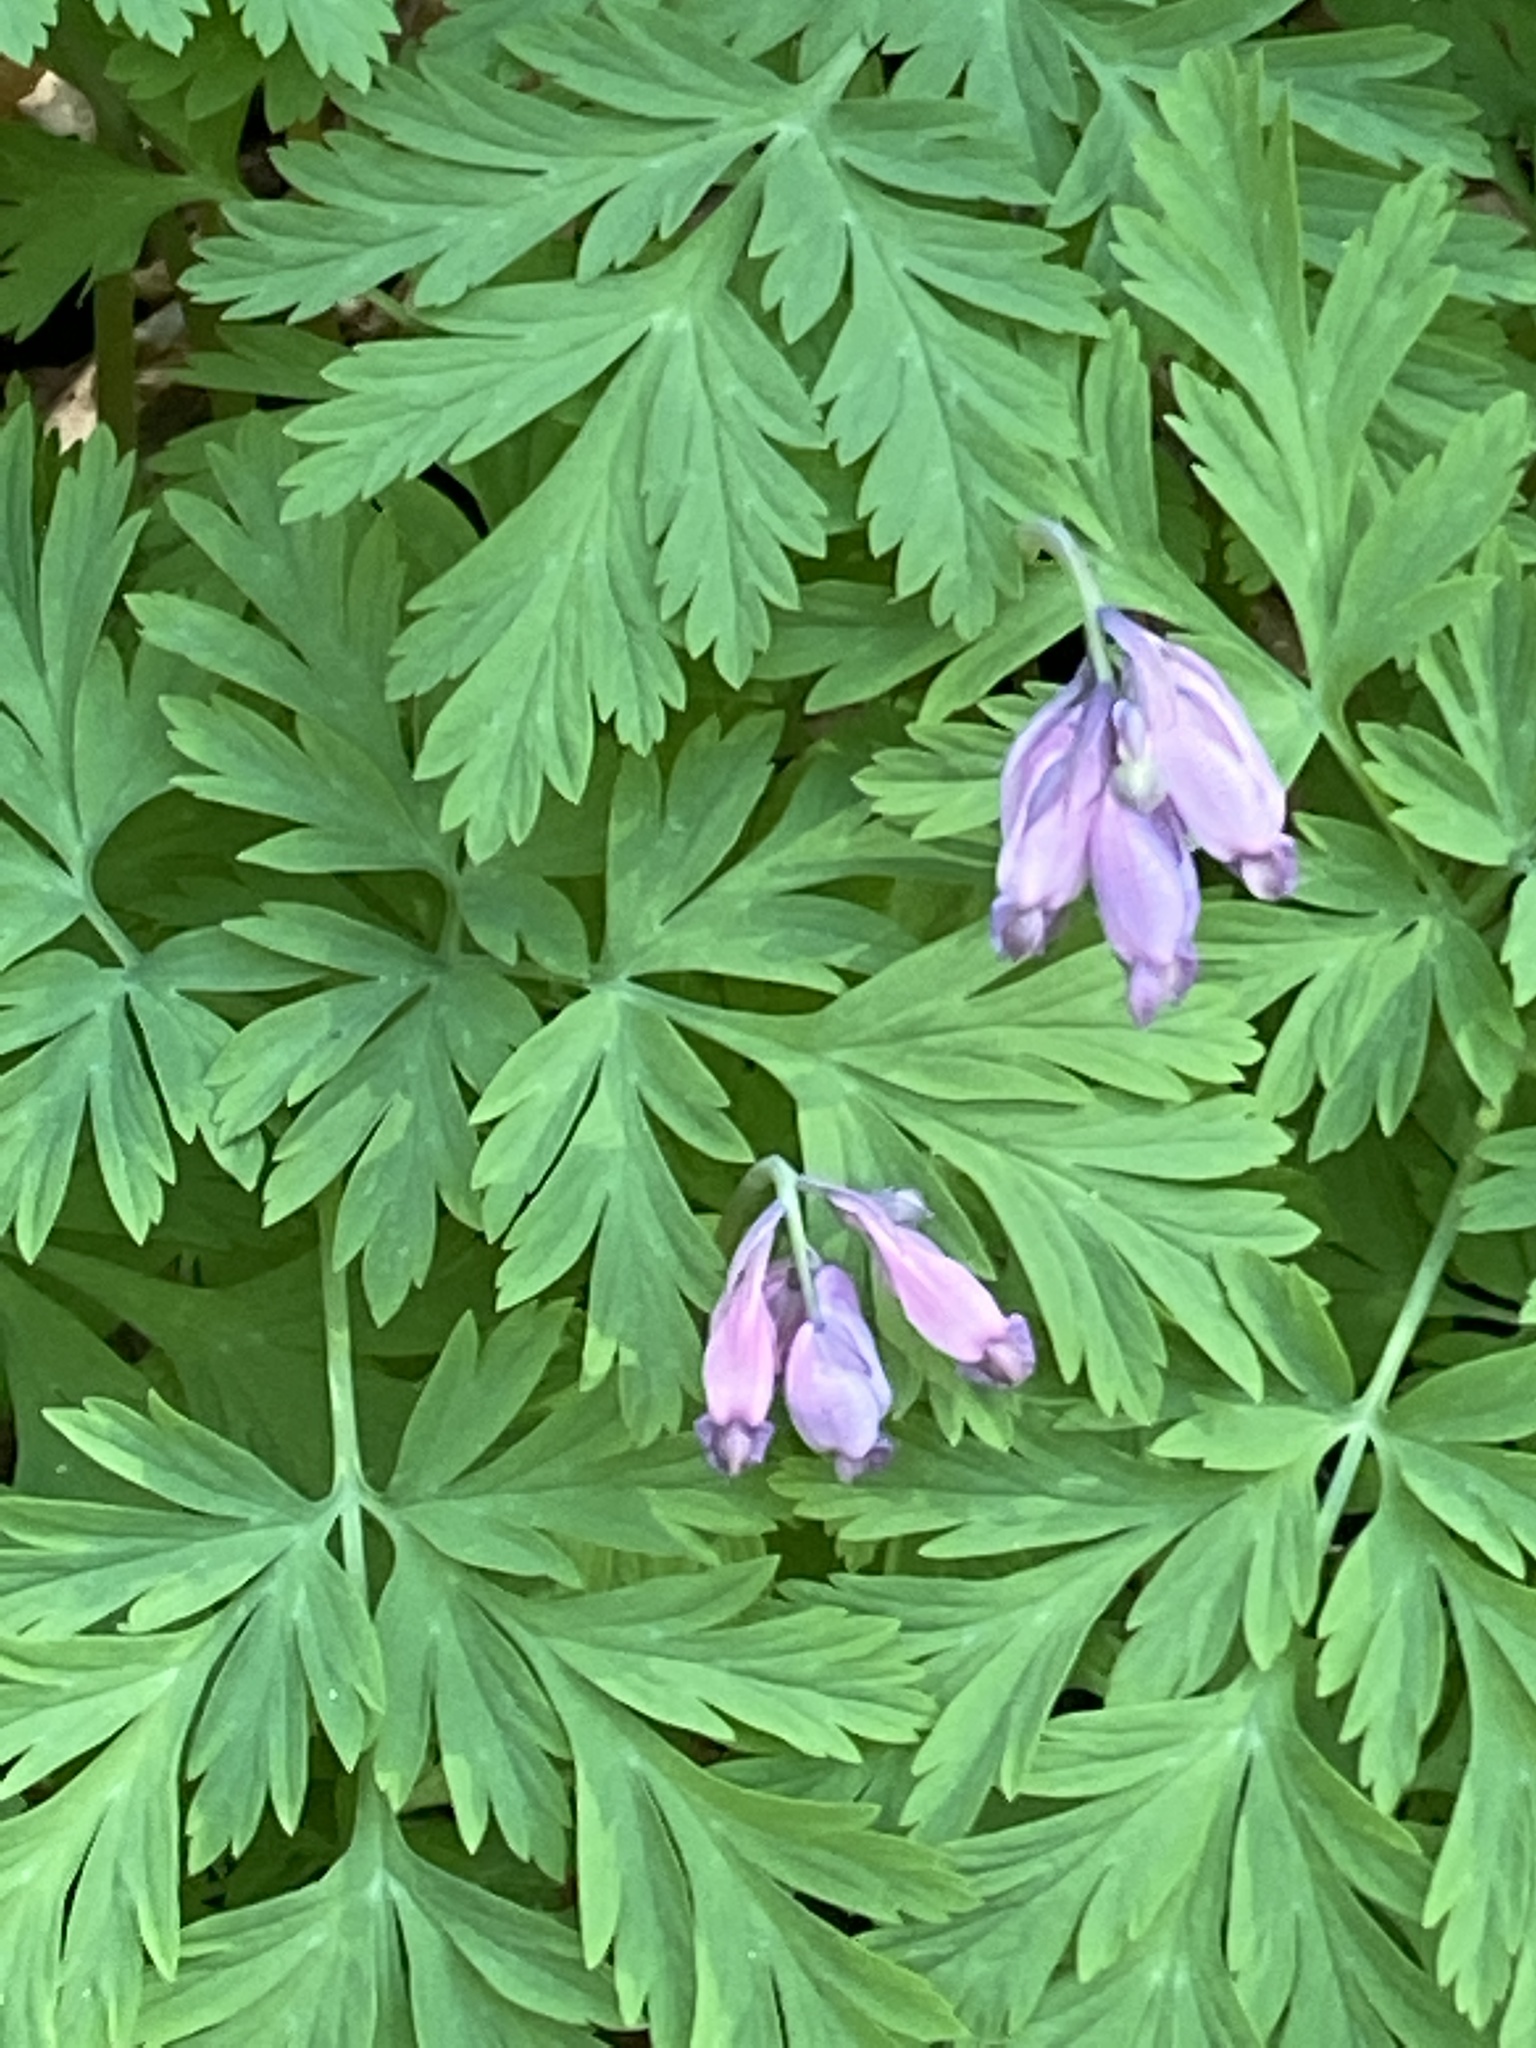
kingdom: Plantae
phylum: Tracheophyta
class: Magnoliopsida
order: Ranunculales
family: Papaveraceae
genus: Dicentra
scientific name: Dicentra formosa
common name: Bleeding-heart
